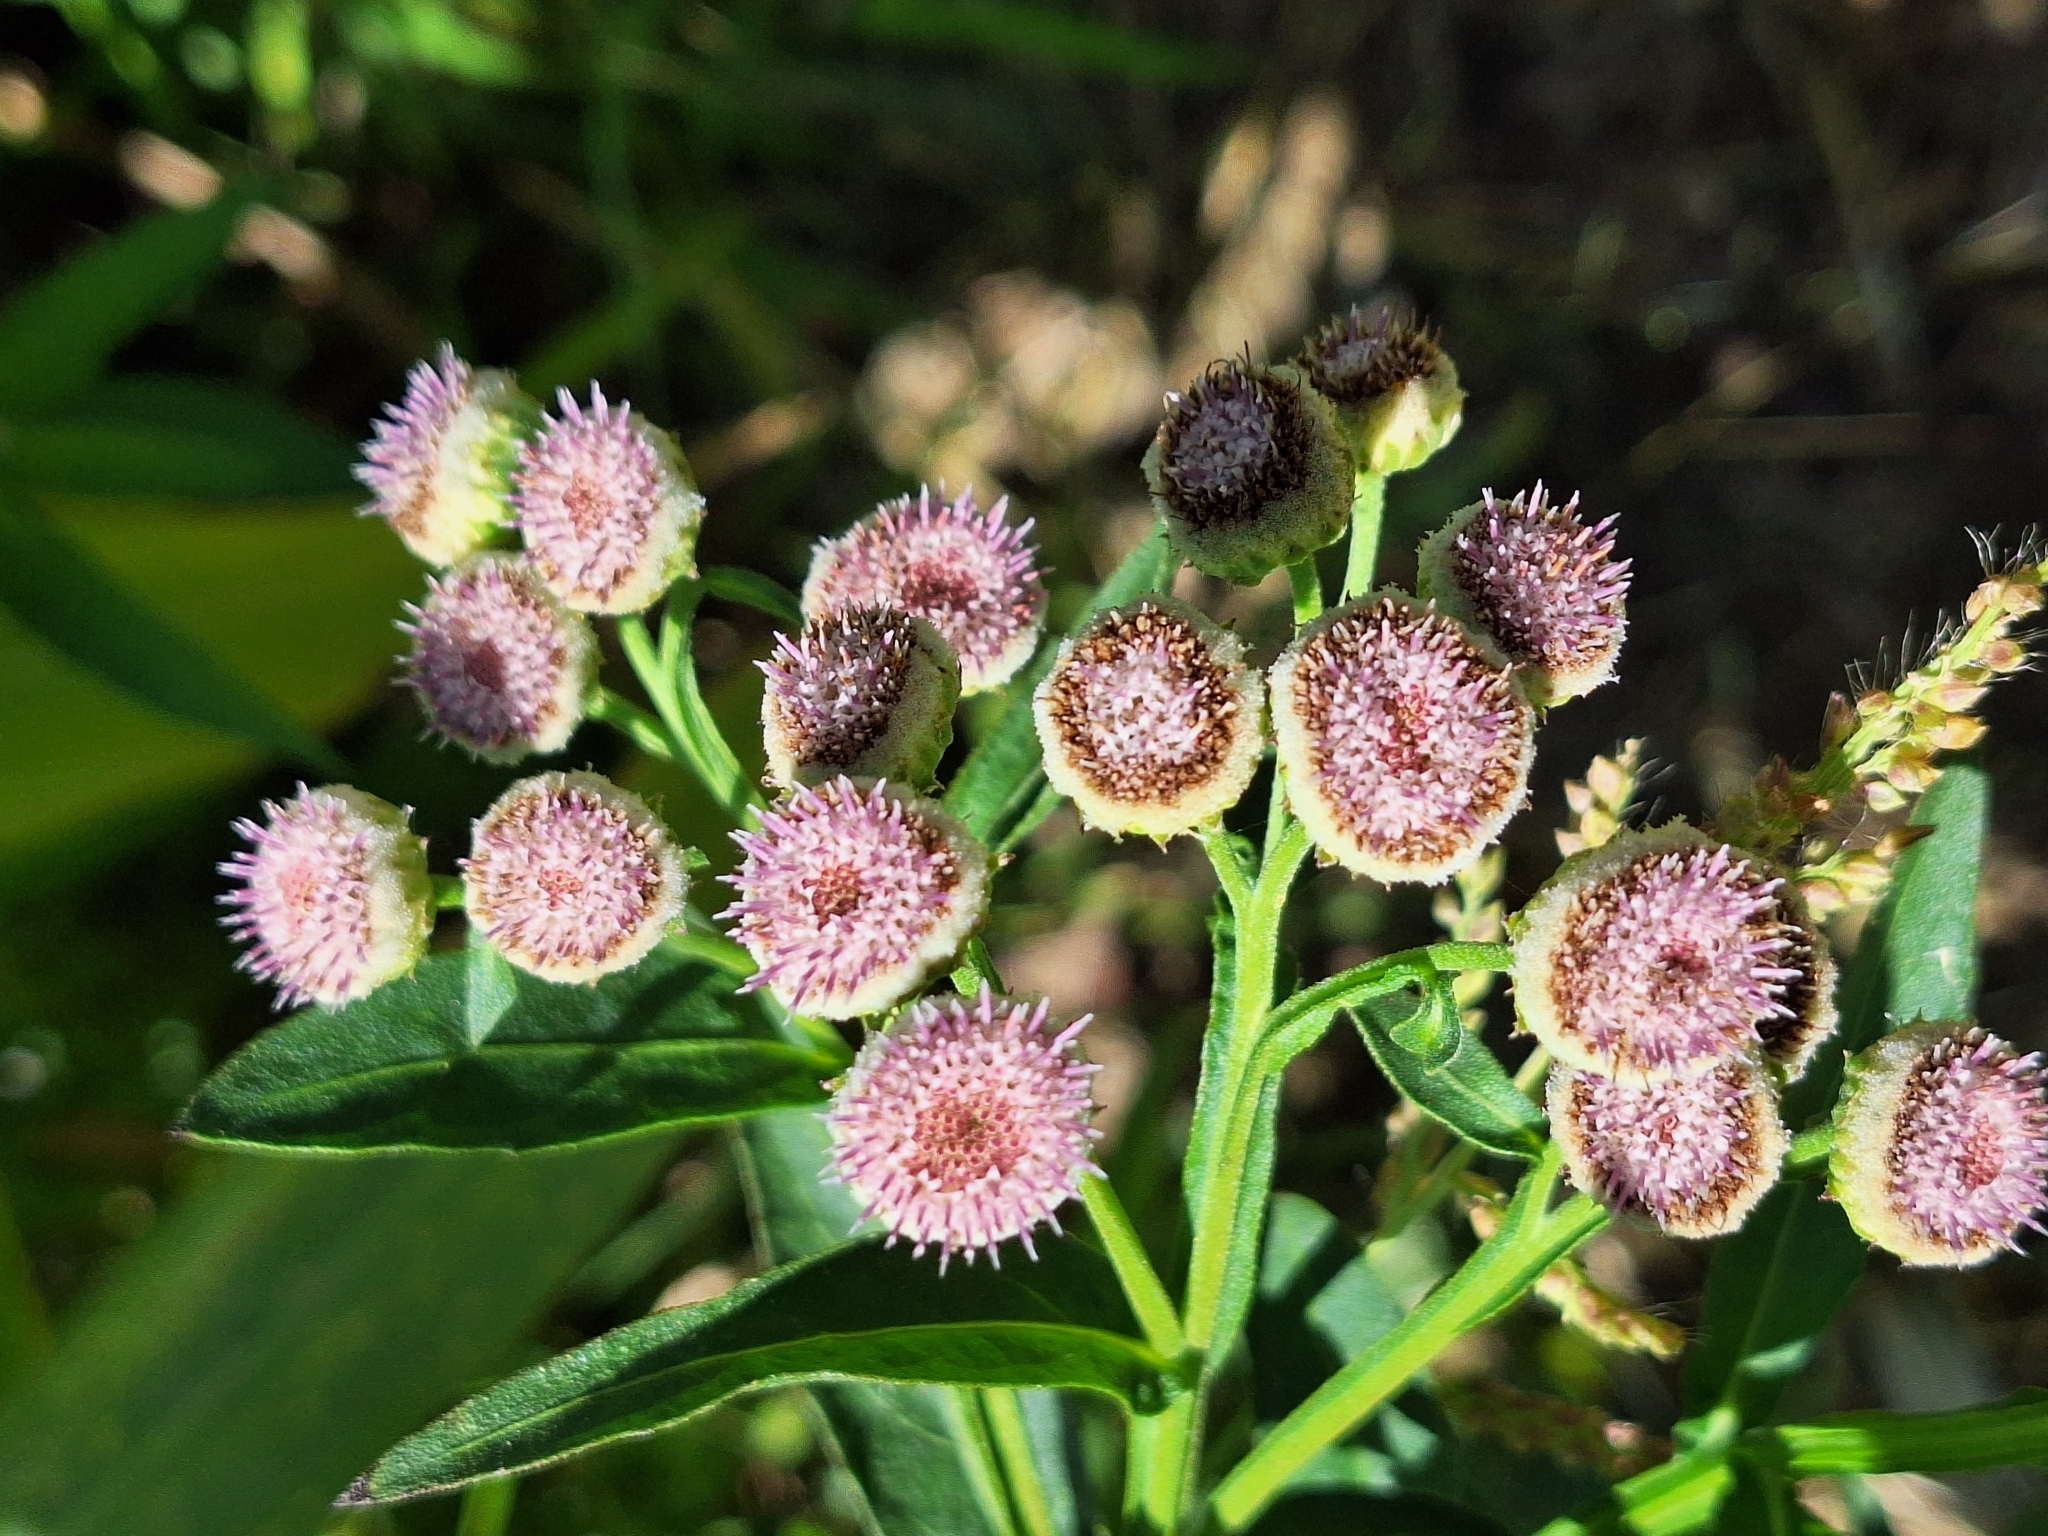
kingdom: Plantae
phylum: Tracheophyta
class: Magnoliopsida
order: Asterales
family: Asteraceae
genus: Pluchea
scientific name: Pluchea sagittalis
